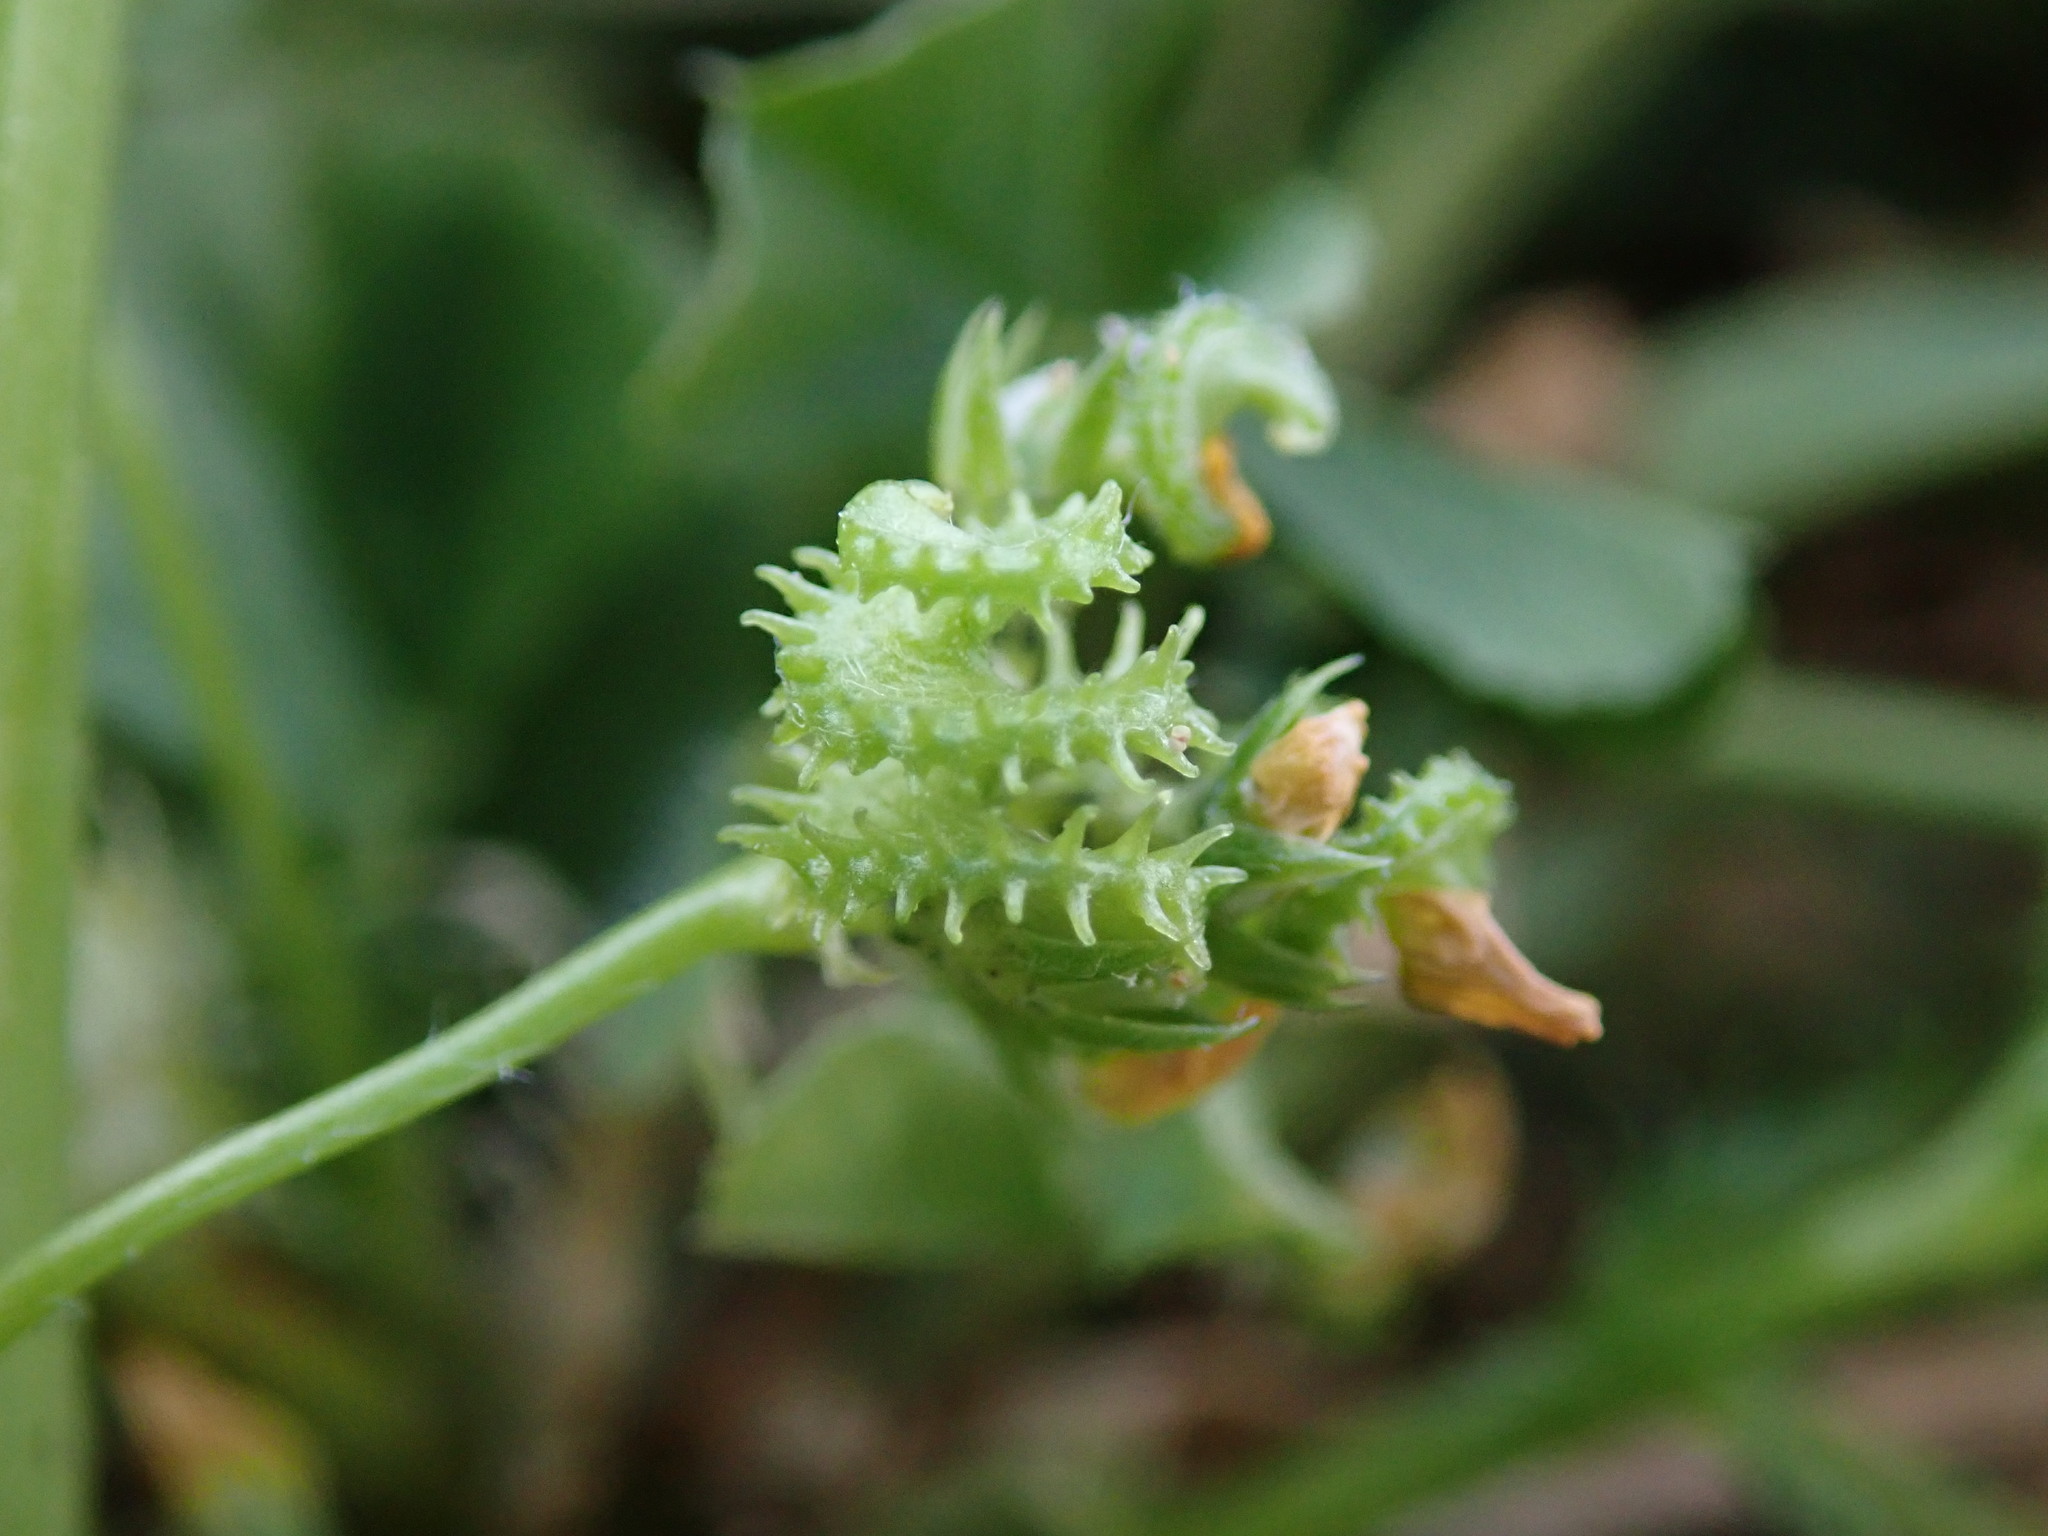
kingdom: Plantae
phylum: Tracheophyta
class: Magnoliopsida
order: Fabales
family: Fabaceae
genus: Medicago
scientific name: Medicago polymorpha
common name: Burclover
